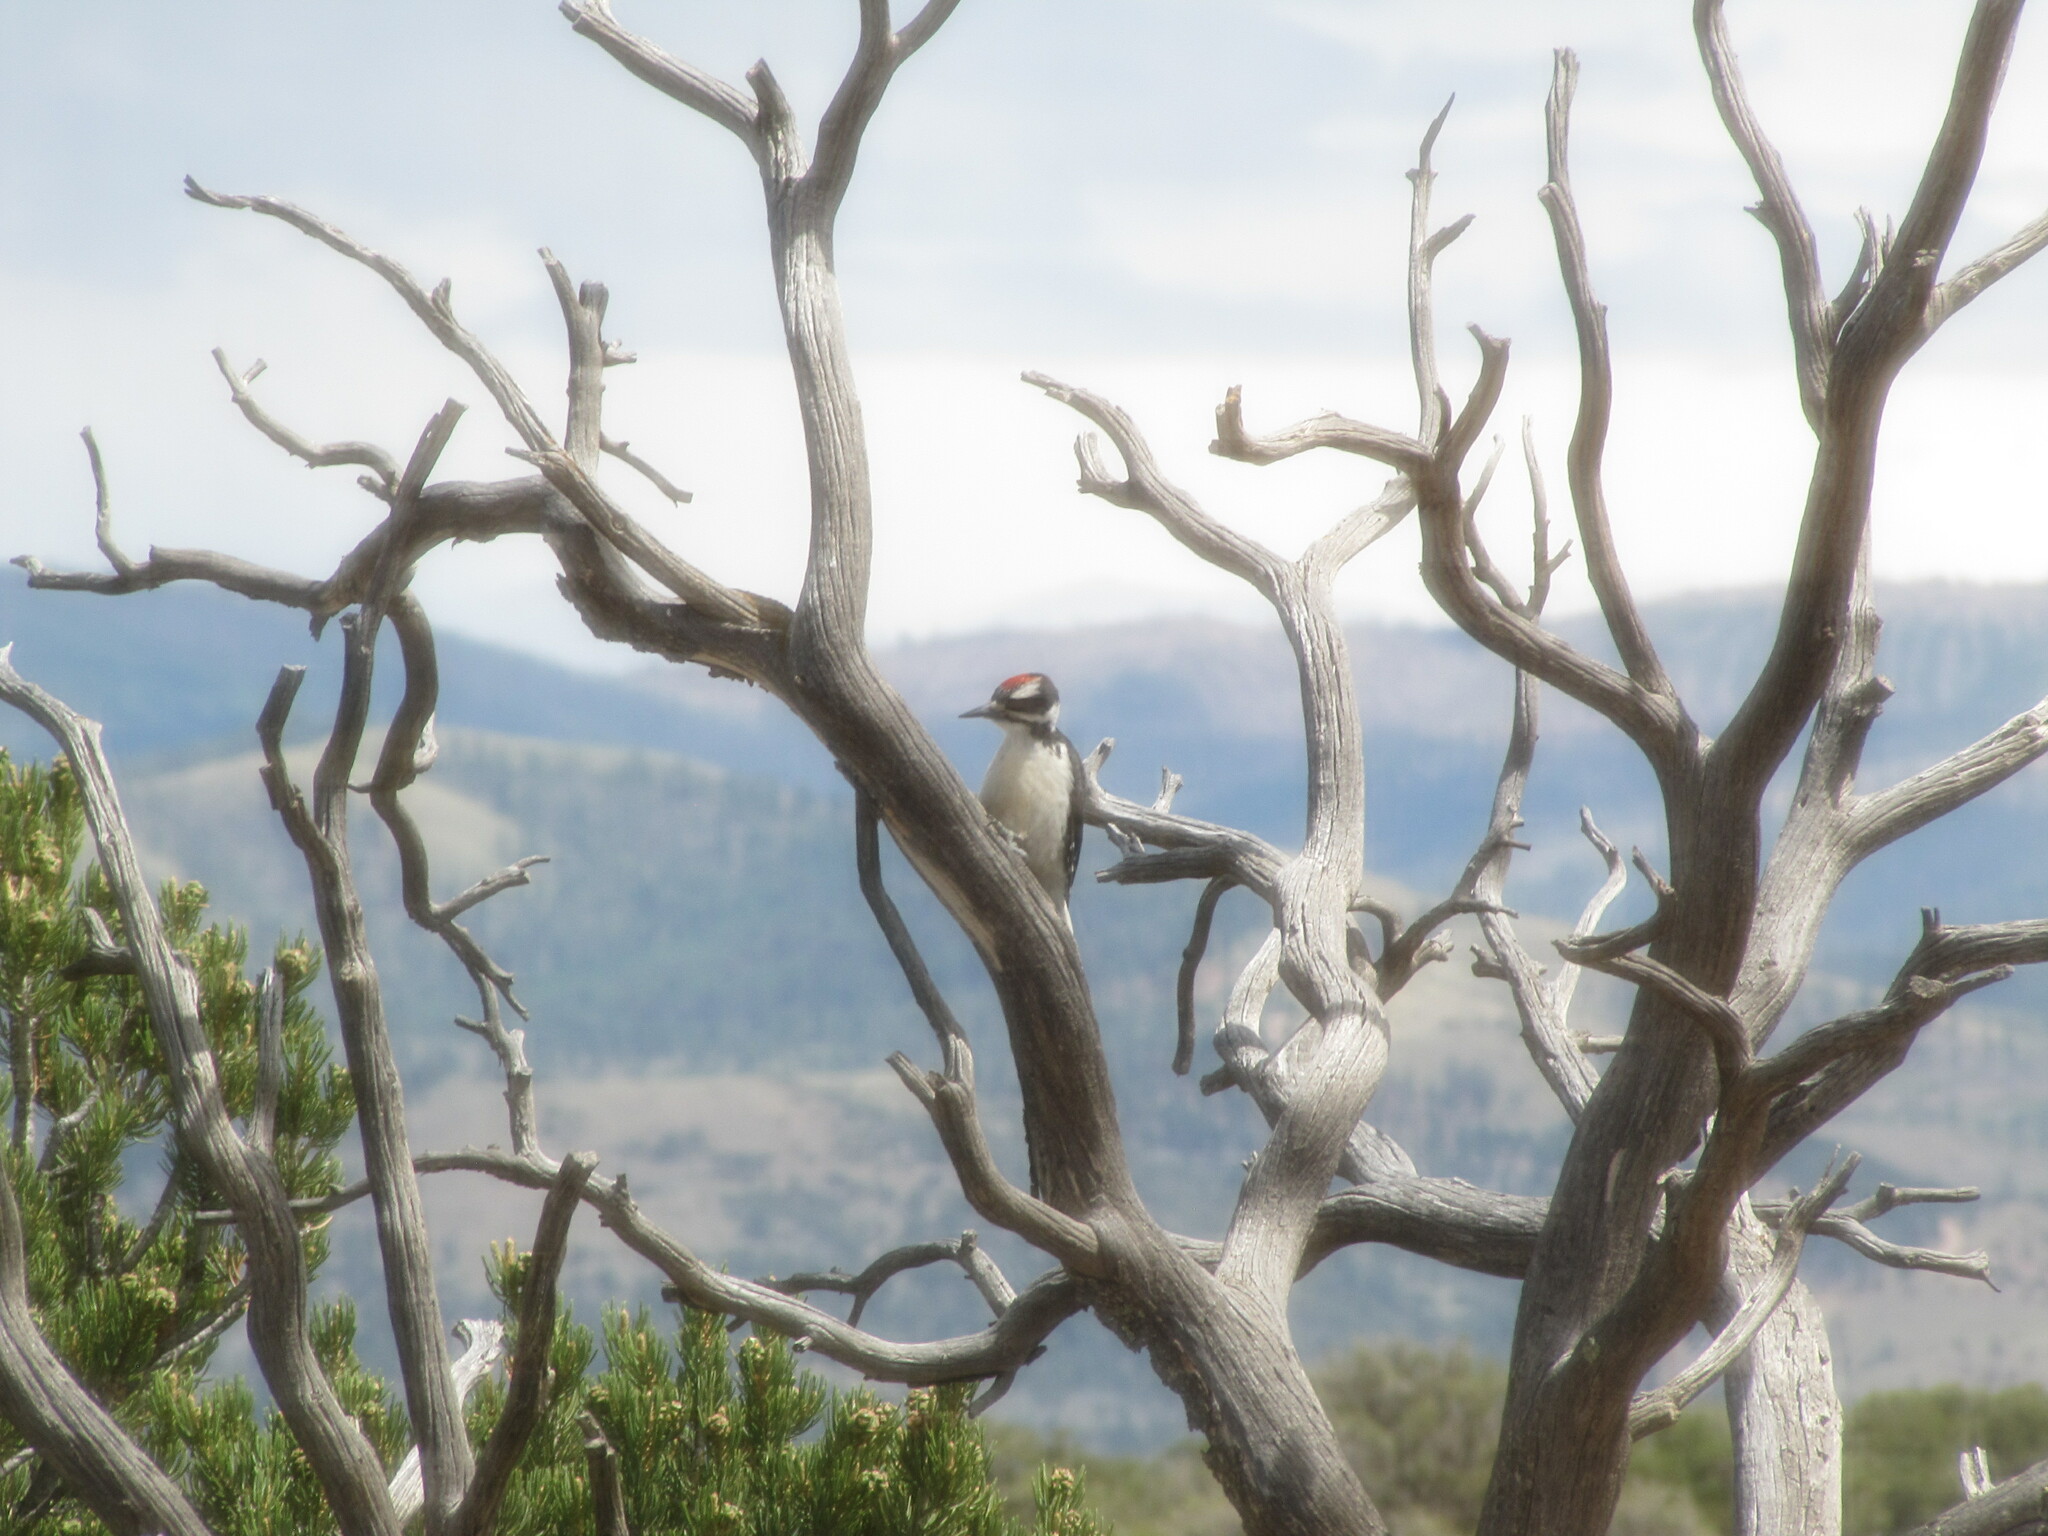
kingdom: Animalia
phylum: Chordata
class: Aves
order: Piciformes
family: Picidae
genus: Leuconotopicus
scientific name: Leuconotopicus villosus
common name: Hairy woodpecker
